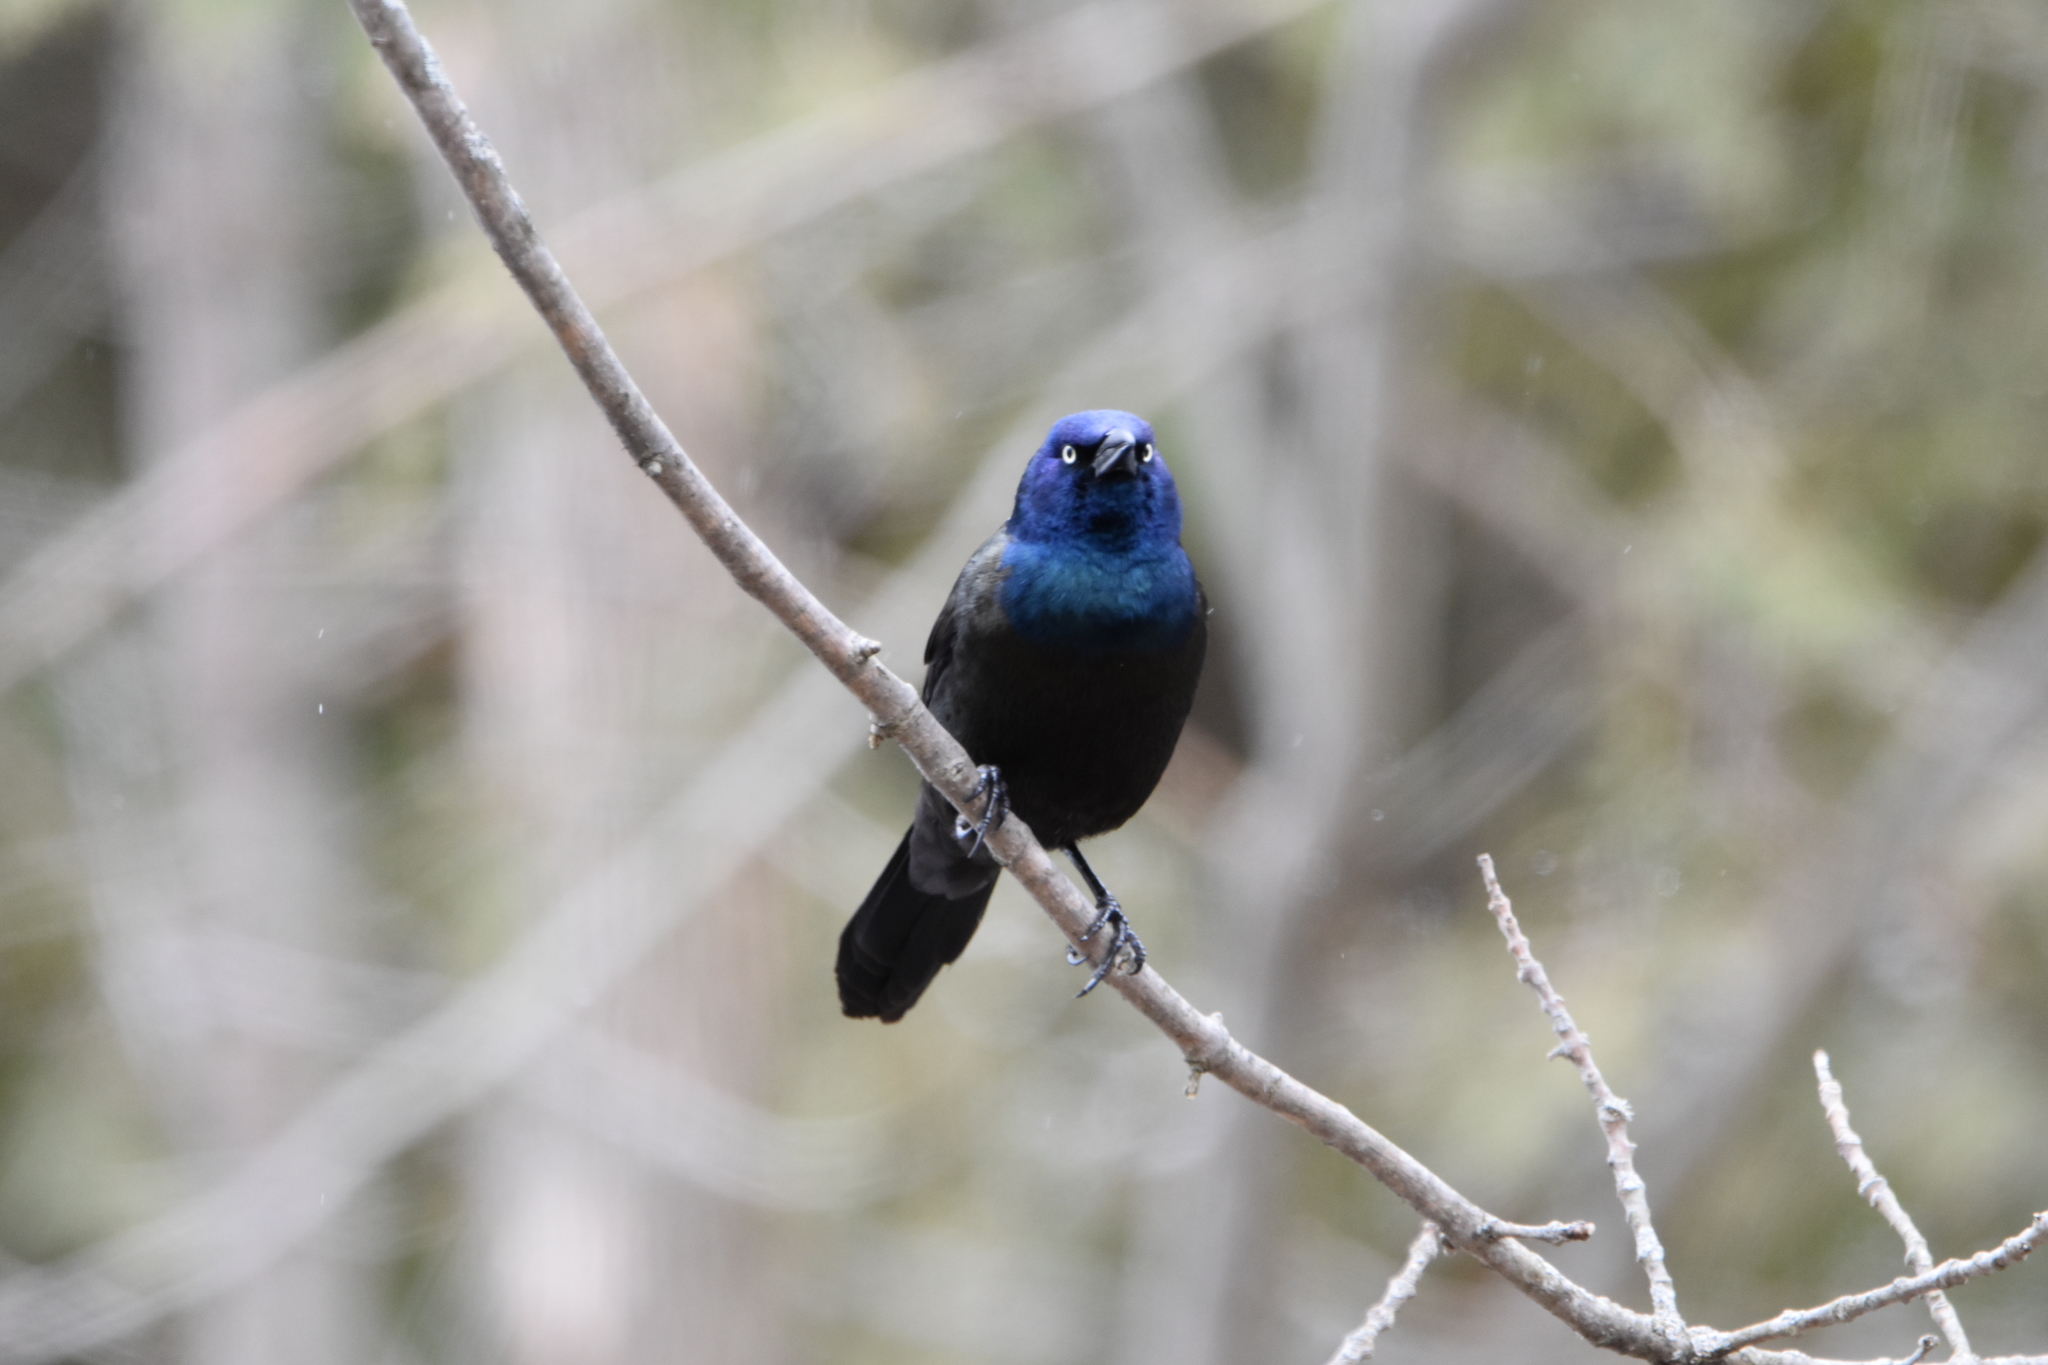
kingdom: Animalia
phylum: Chordata
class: Aves
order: Passeriformes
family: Icteridae
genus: Quiscalus
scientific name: Quiscalus quiscula
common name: Common grackle
